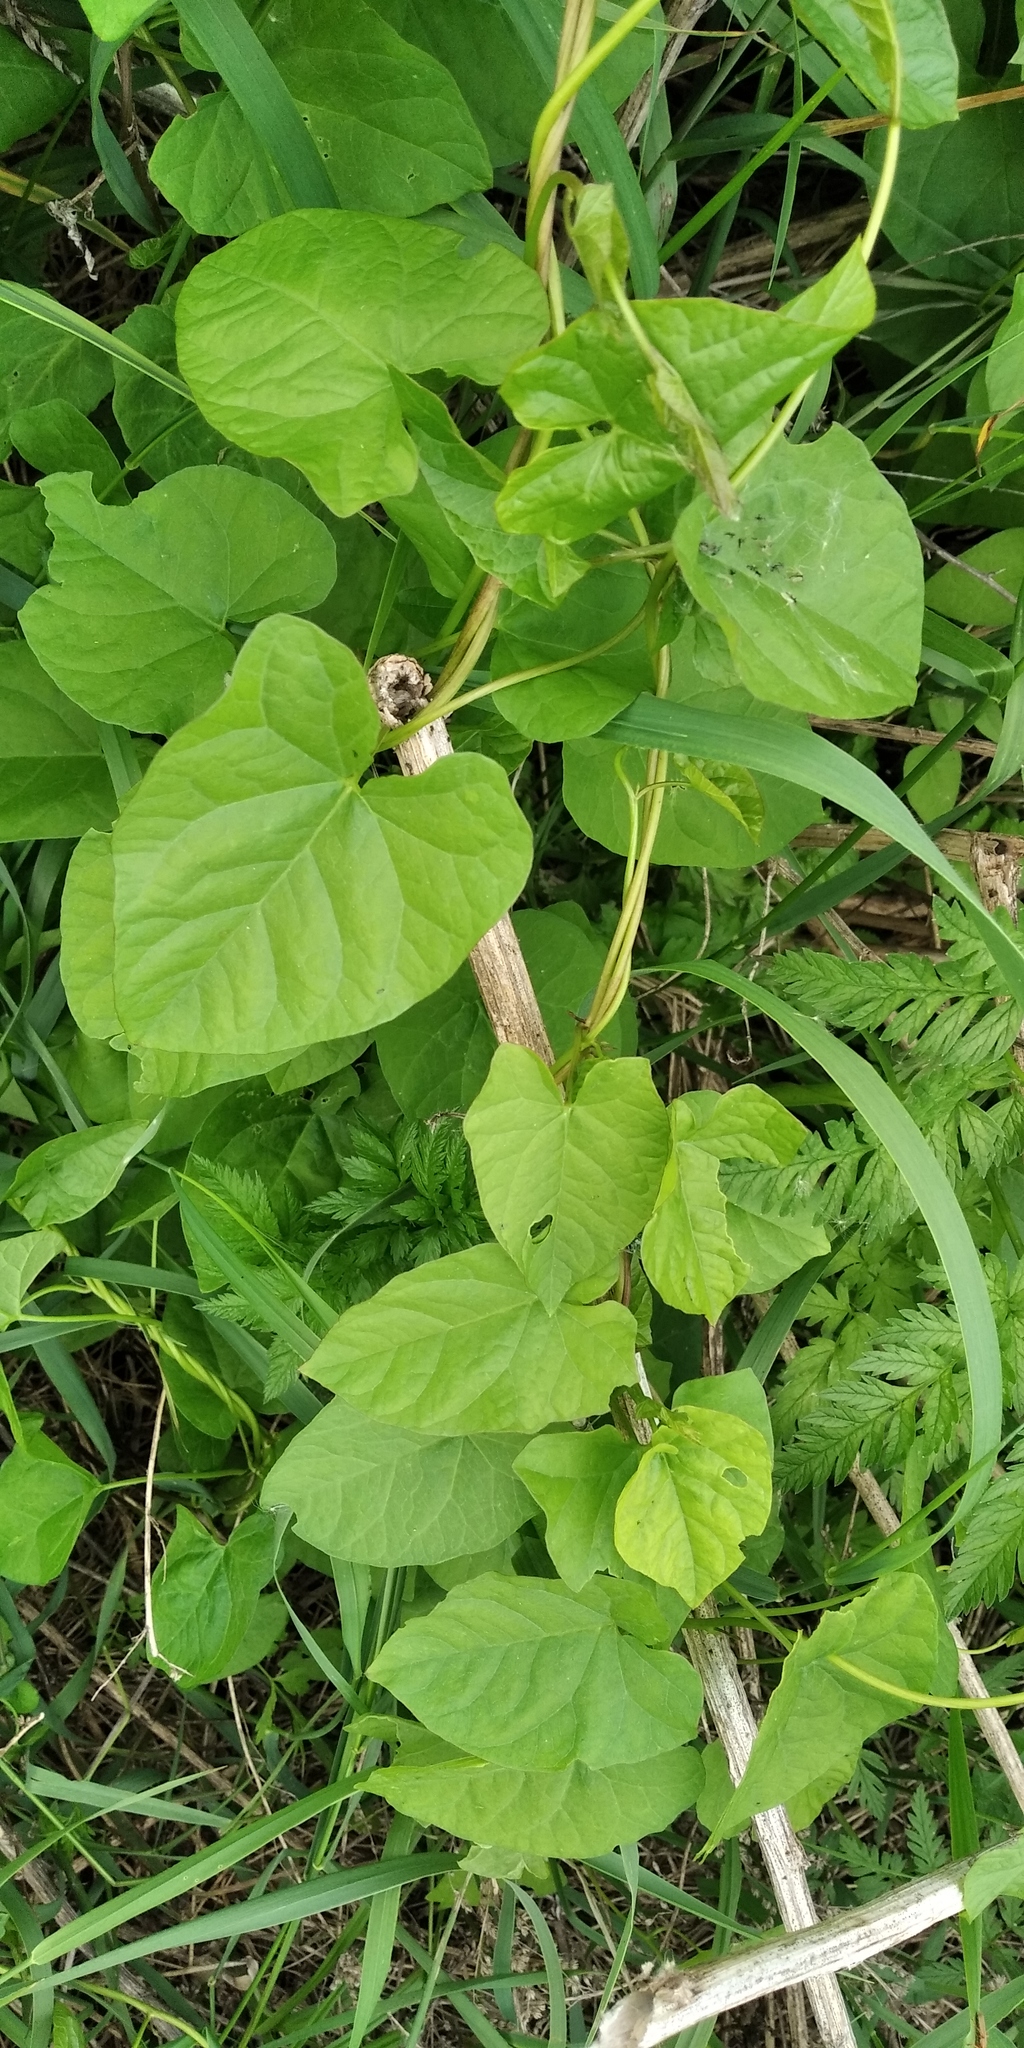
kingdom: Plantae
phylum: Tracheophyta
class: Magnoliopsida
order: Solanales
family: Convolvulaceae
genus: Calystegia
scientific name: Calystegia sepium
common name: Hedge bindweed
